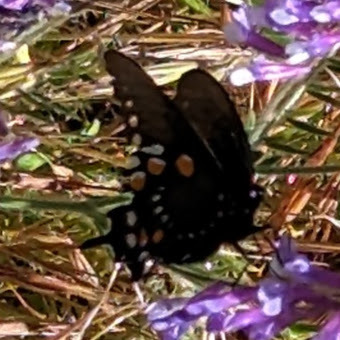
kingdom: Animalia
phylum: Arthropoda
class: Insecta
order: Lepidoptera
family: Papilionidae
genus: Battus
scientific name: Battus philenor
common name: Pipevine swallowtail
